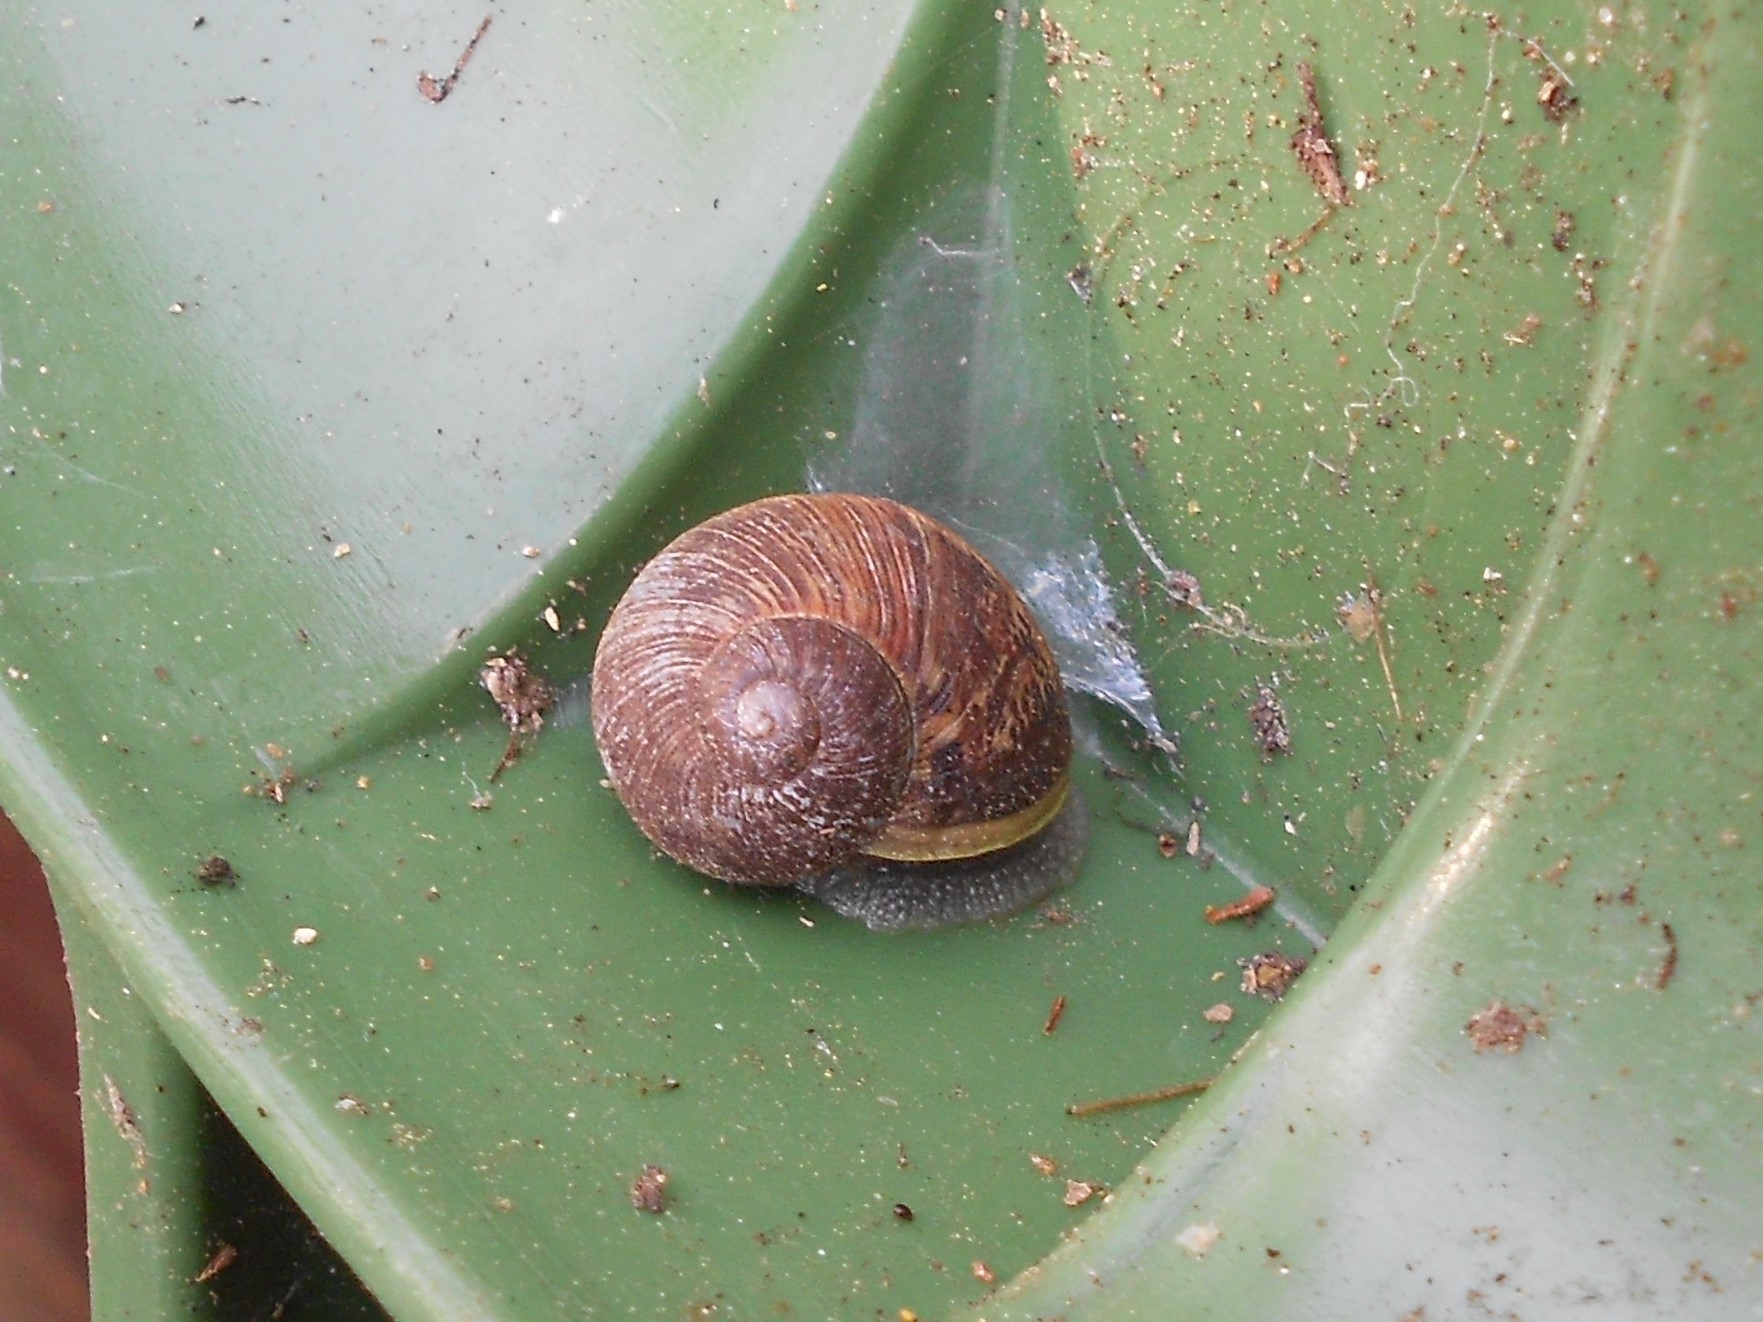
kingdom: Animalia
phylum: Mollusca
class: Gastropoda
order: Stylommatophora
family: Helicidae
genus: Cornu
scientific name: Cornu aspersum
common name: Brown garden snail
